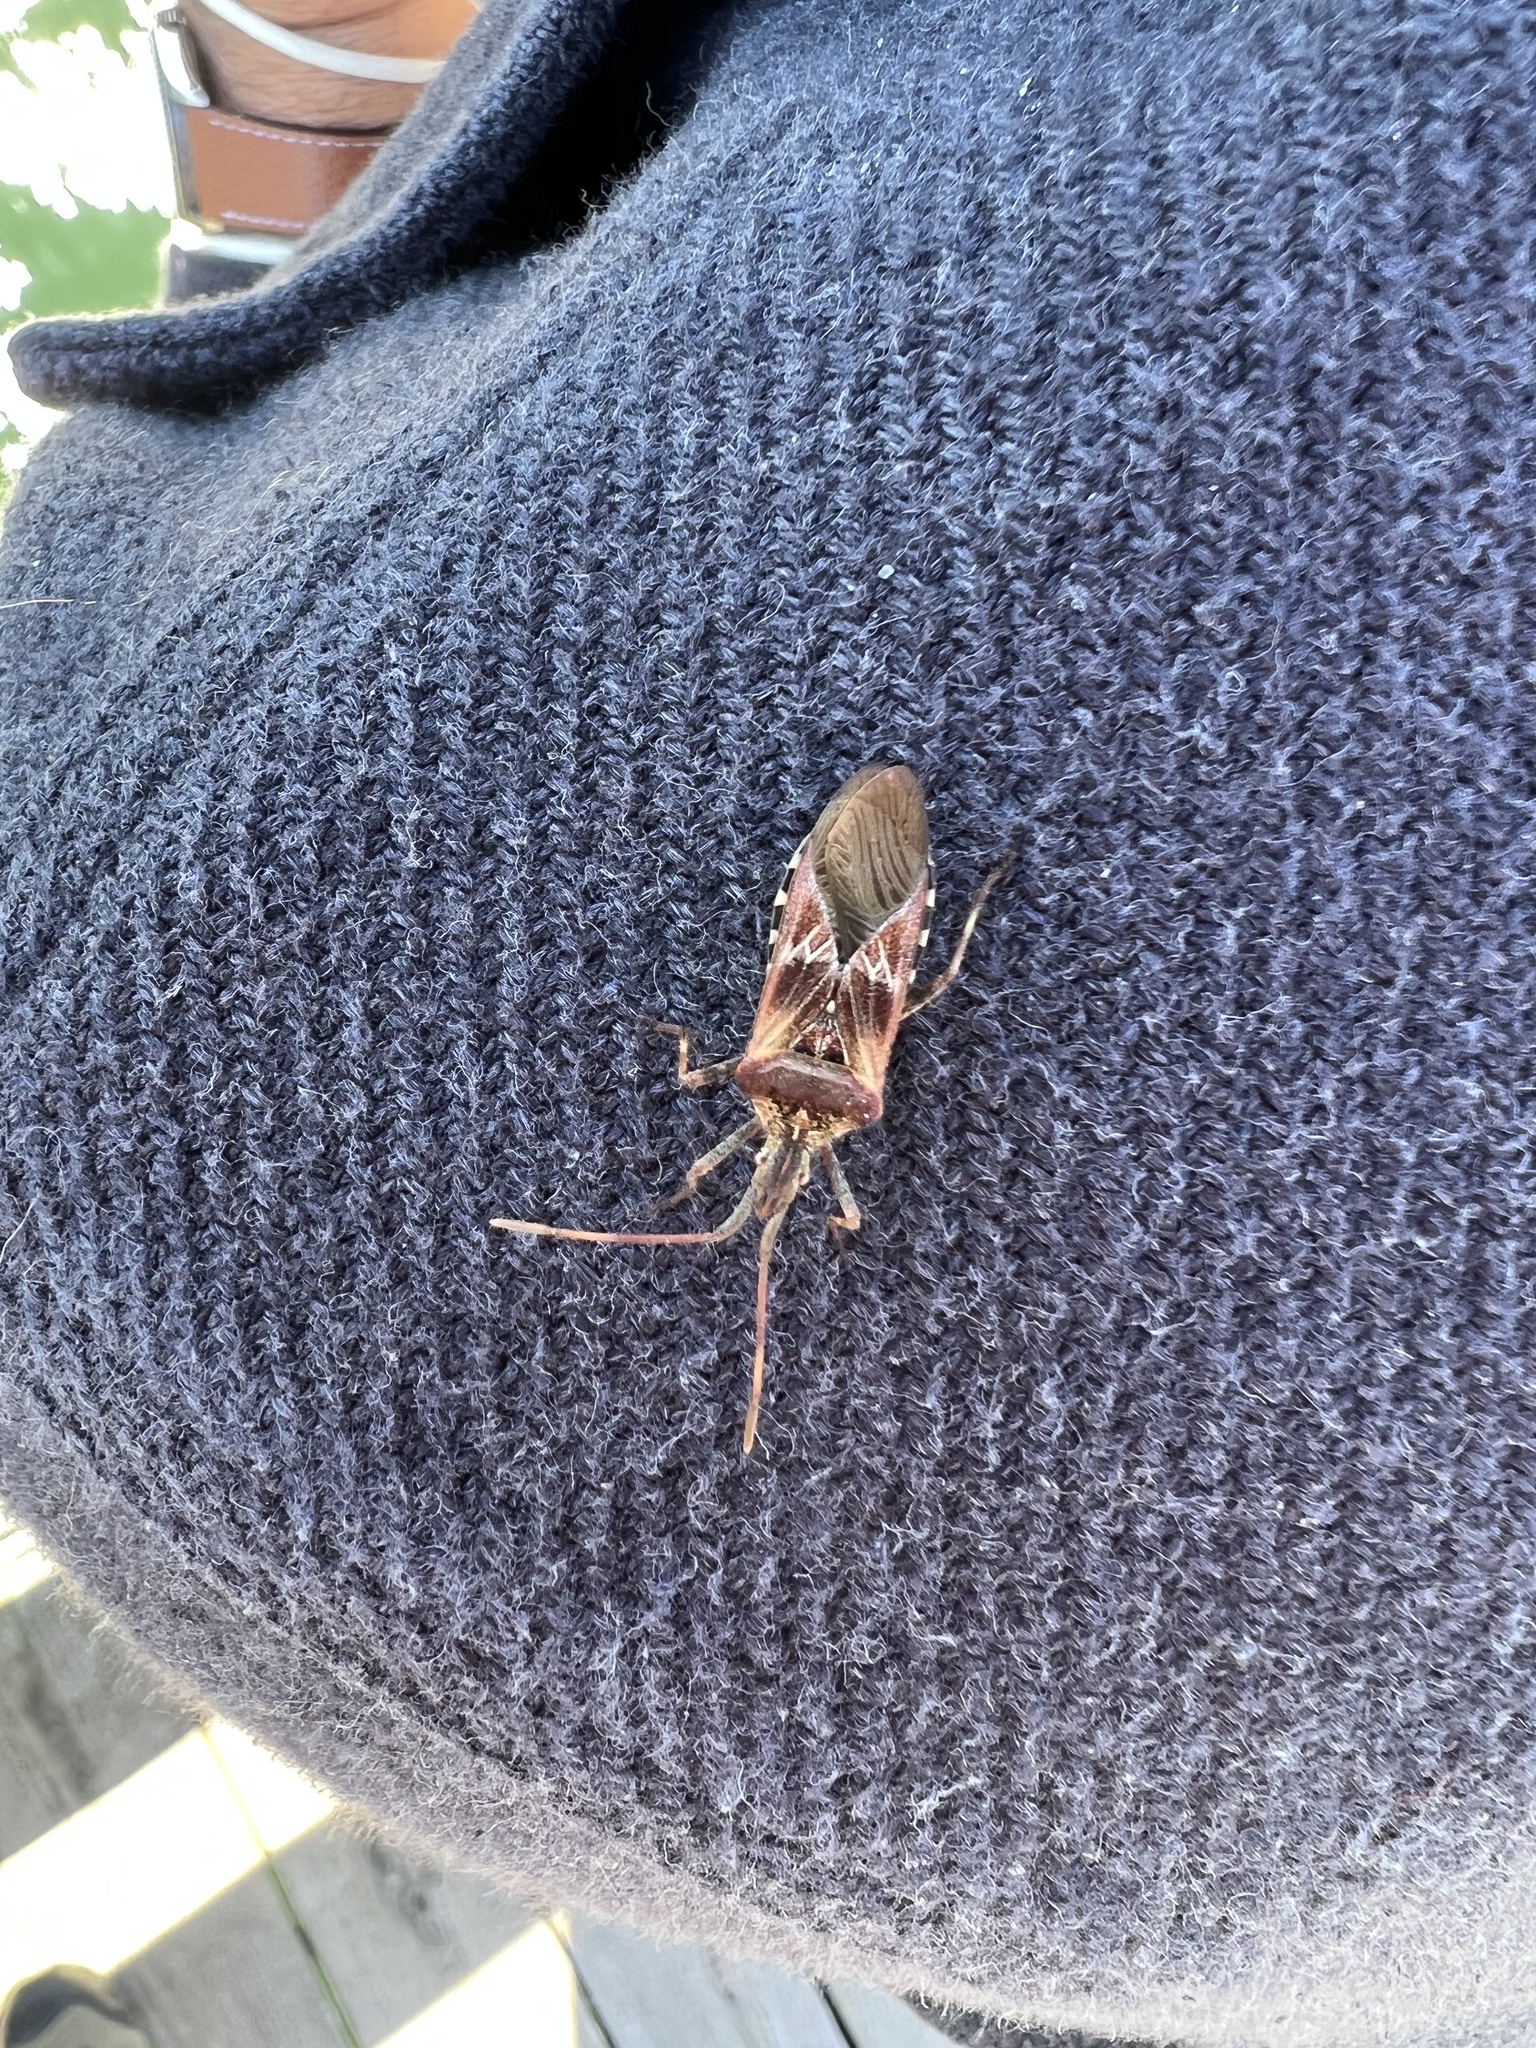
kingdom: Animalia
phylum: Arthropoda
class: Insecta
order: Hemiptera
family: Coreidae
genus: Leptoglossus
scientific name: Leptoglossus occidentalis
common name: Western conifer-seed bug
